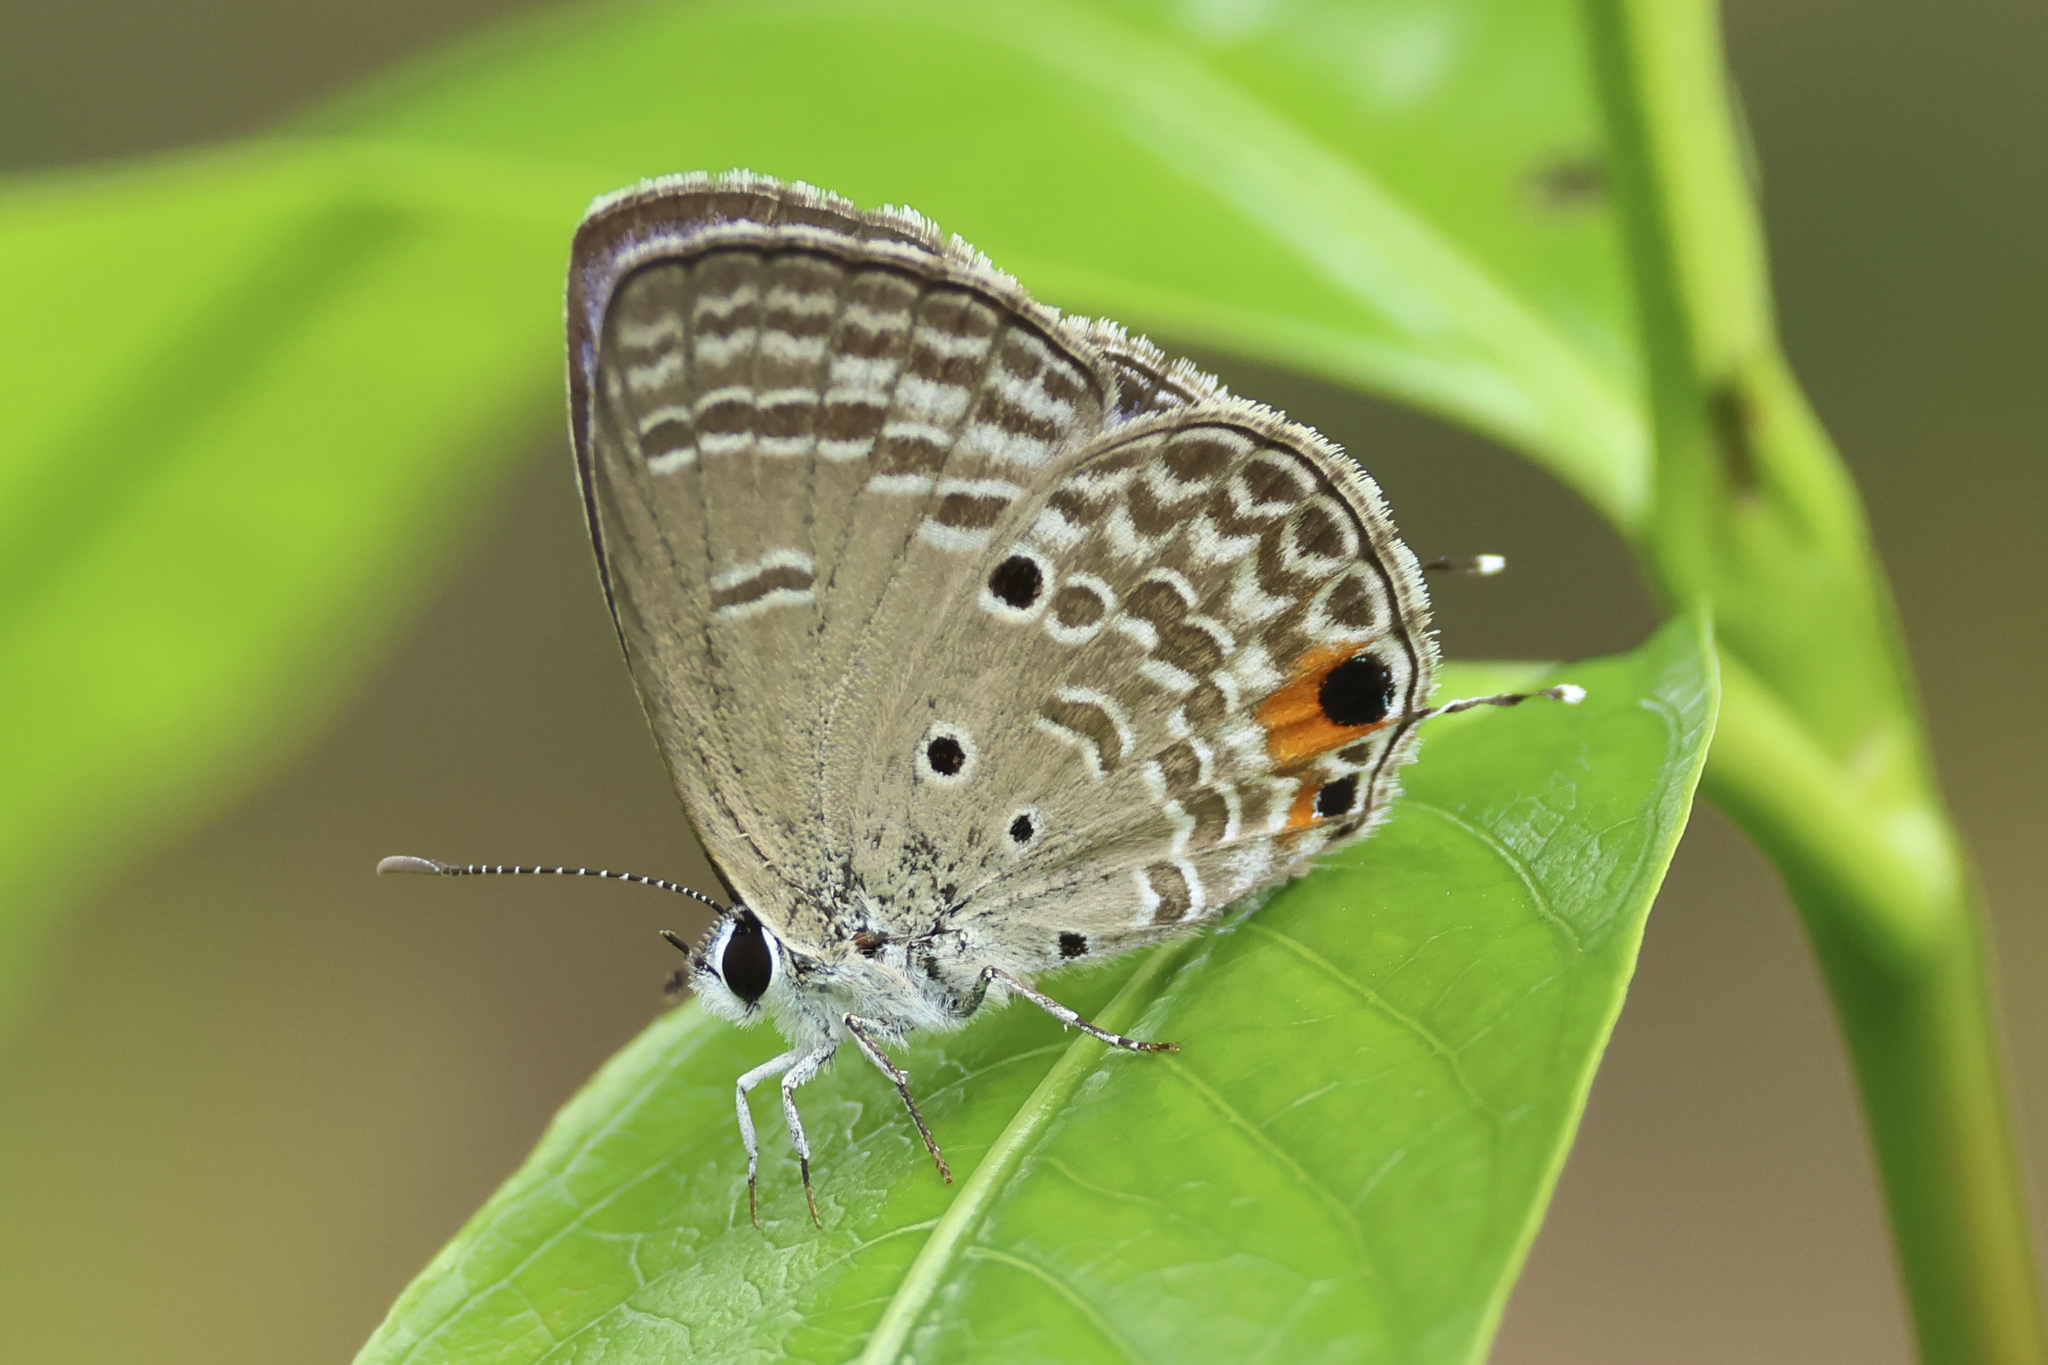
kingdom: Animalia
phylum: Arthropoda
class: Insecta
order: Lepidoptera
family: Lycaenidae
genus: Luthrodes
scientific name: Luthrodes pandava
